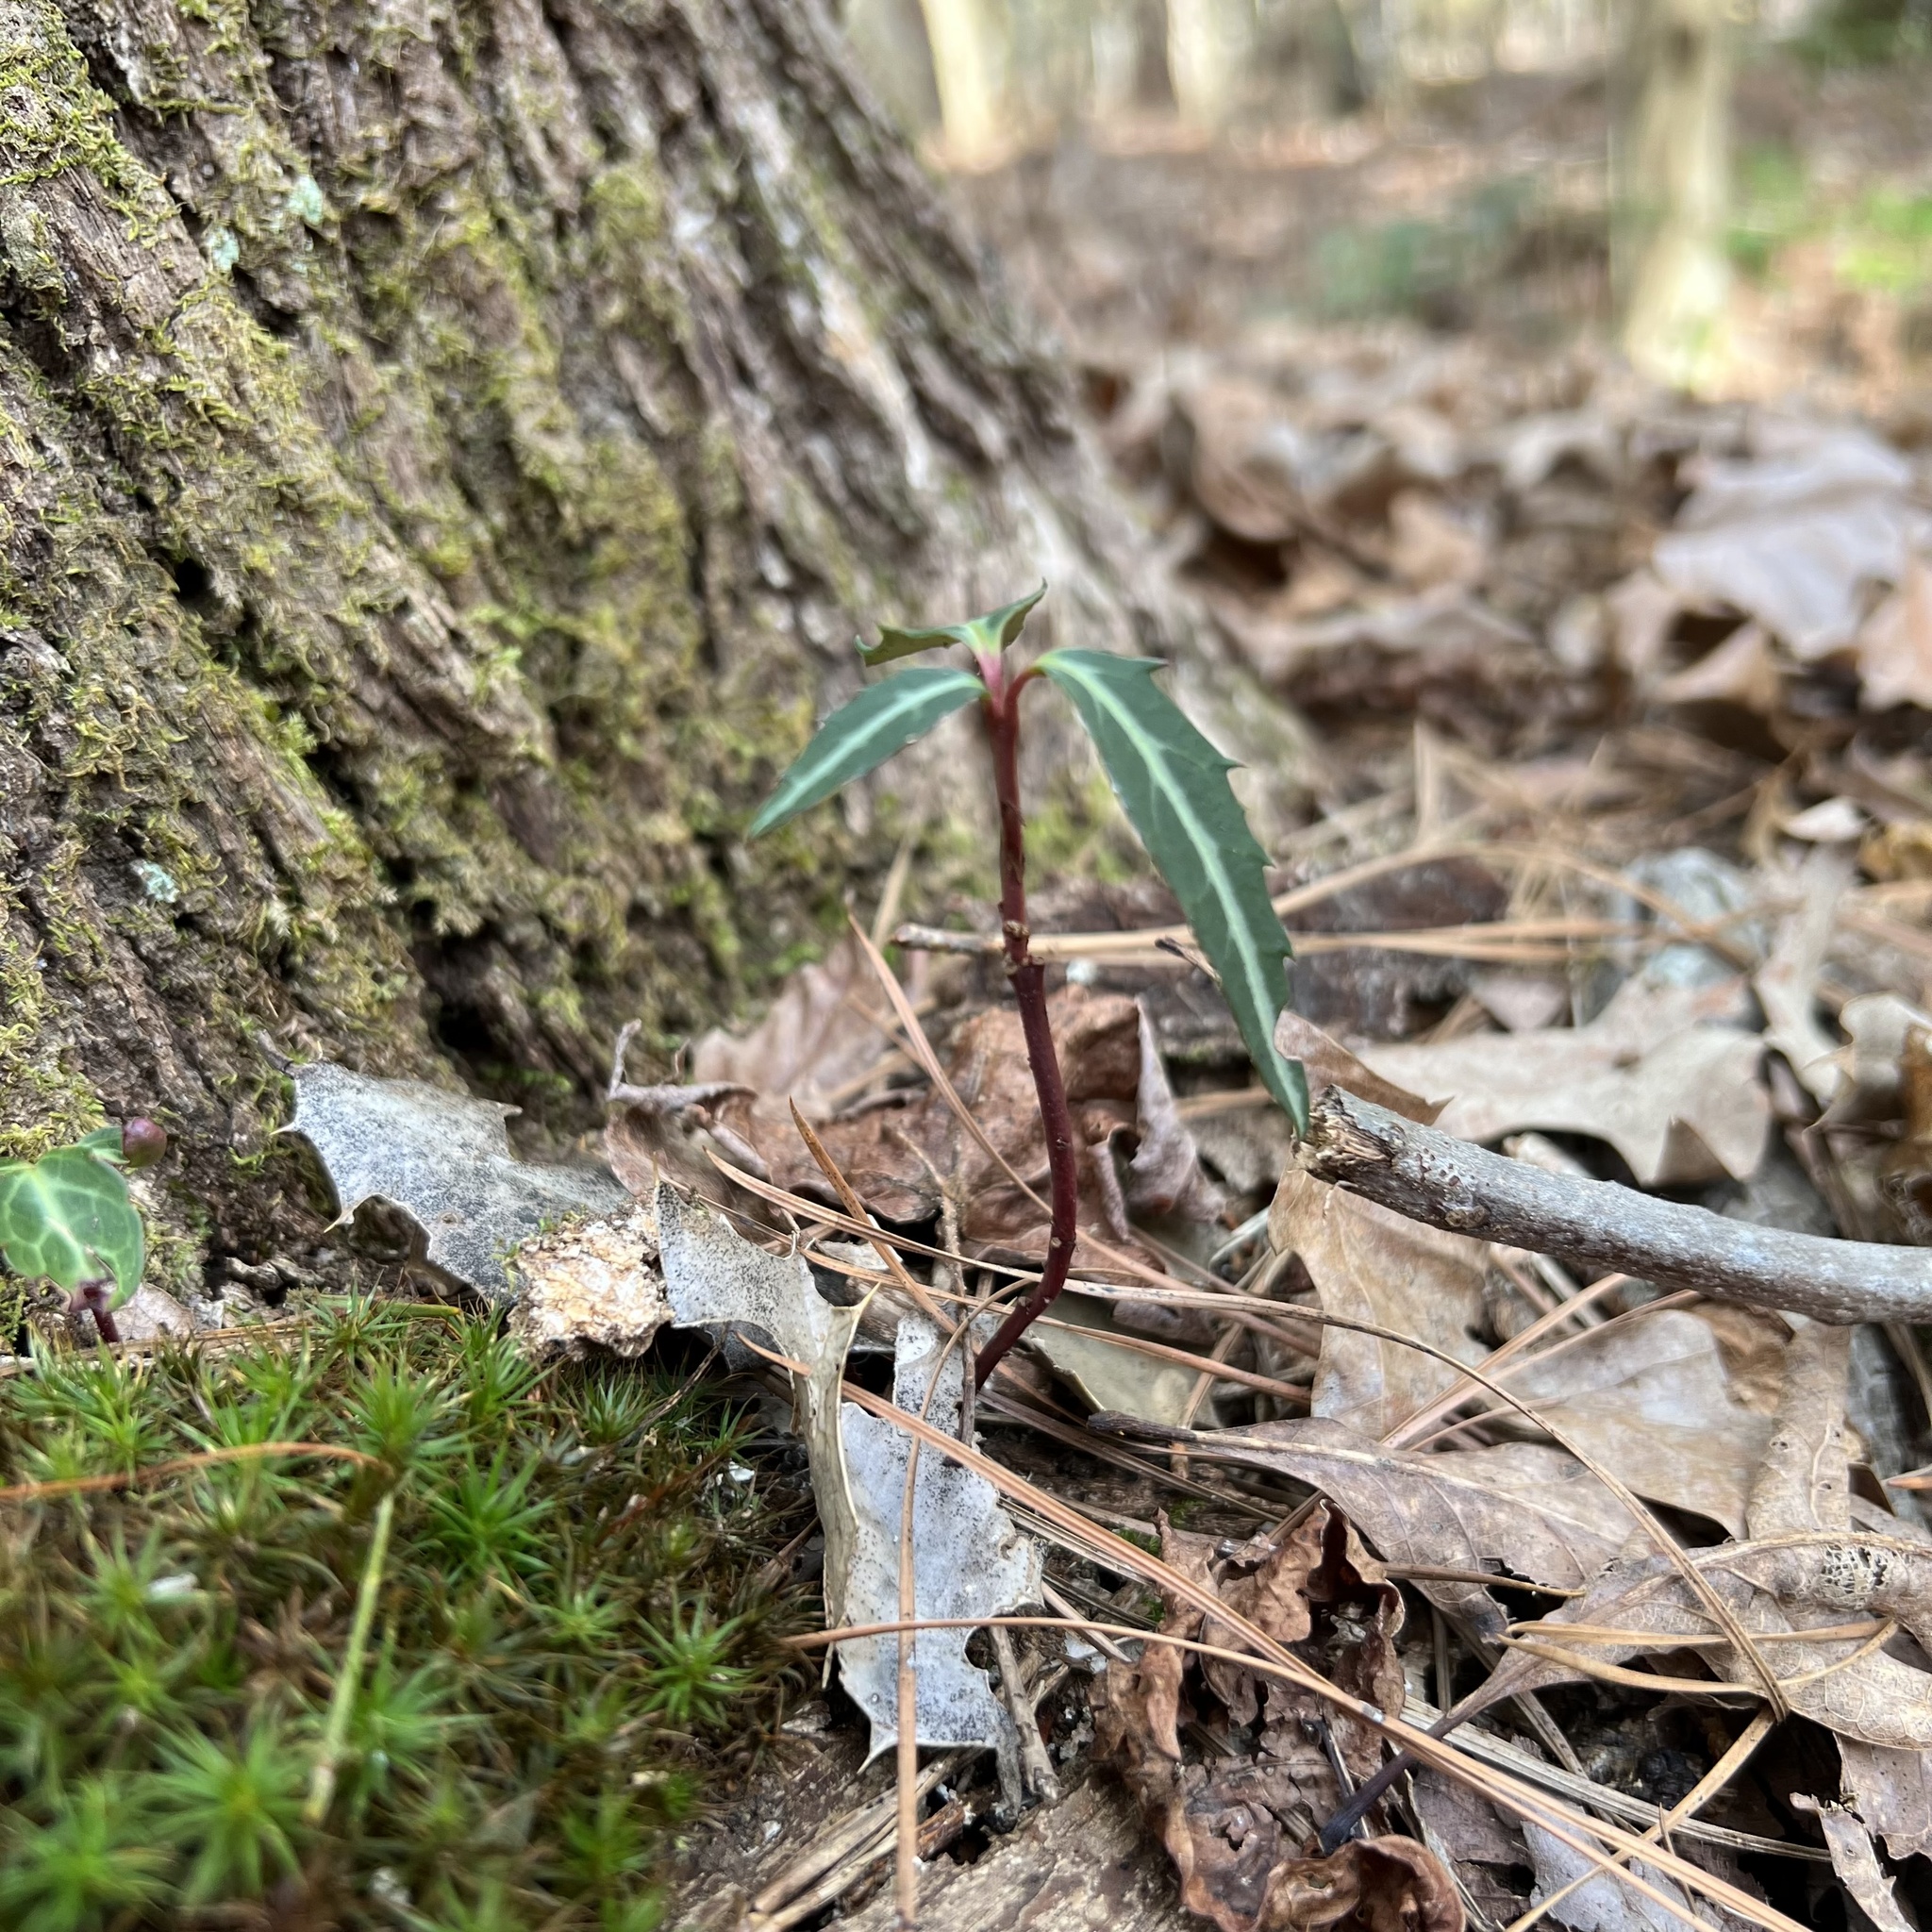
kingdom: Plantae
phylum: Tracheophyta
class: Magnoliopsida
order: Ericales
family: Ericaceae
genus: Chimaphila
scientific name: Chimaphila maculata
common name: Spotted pipsissewa
